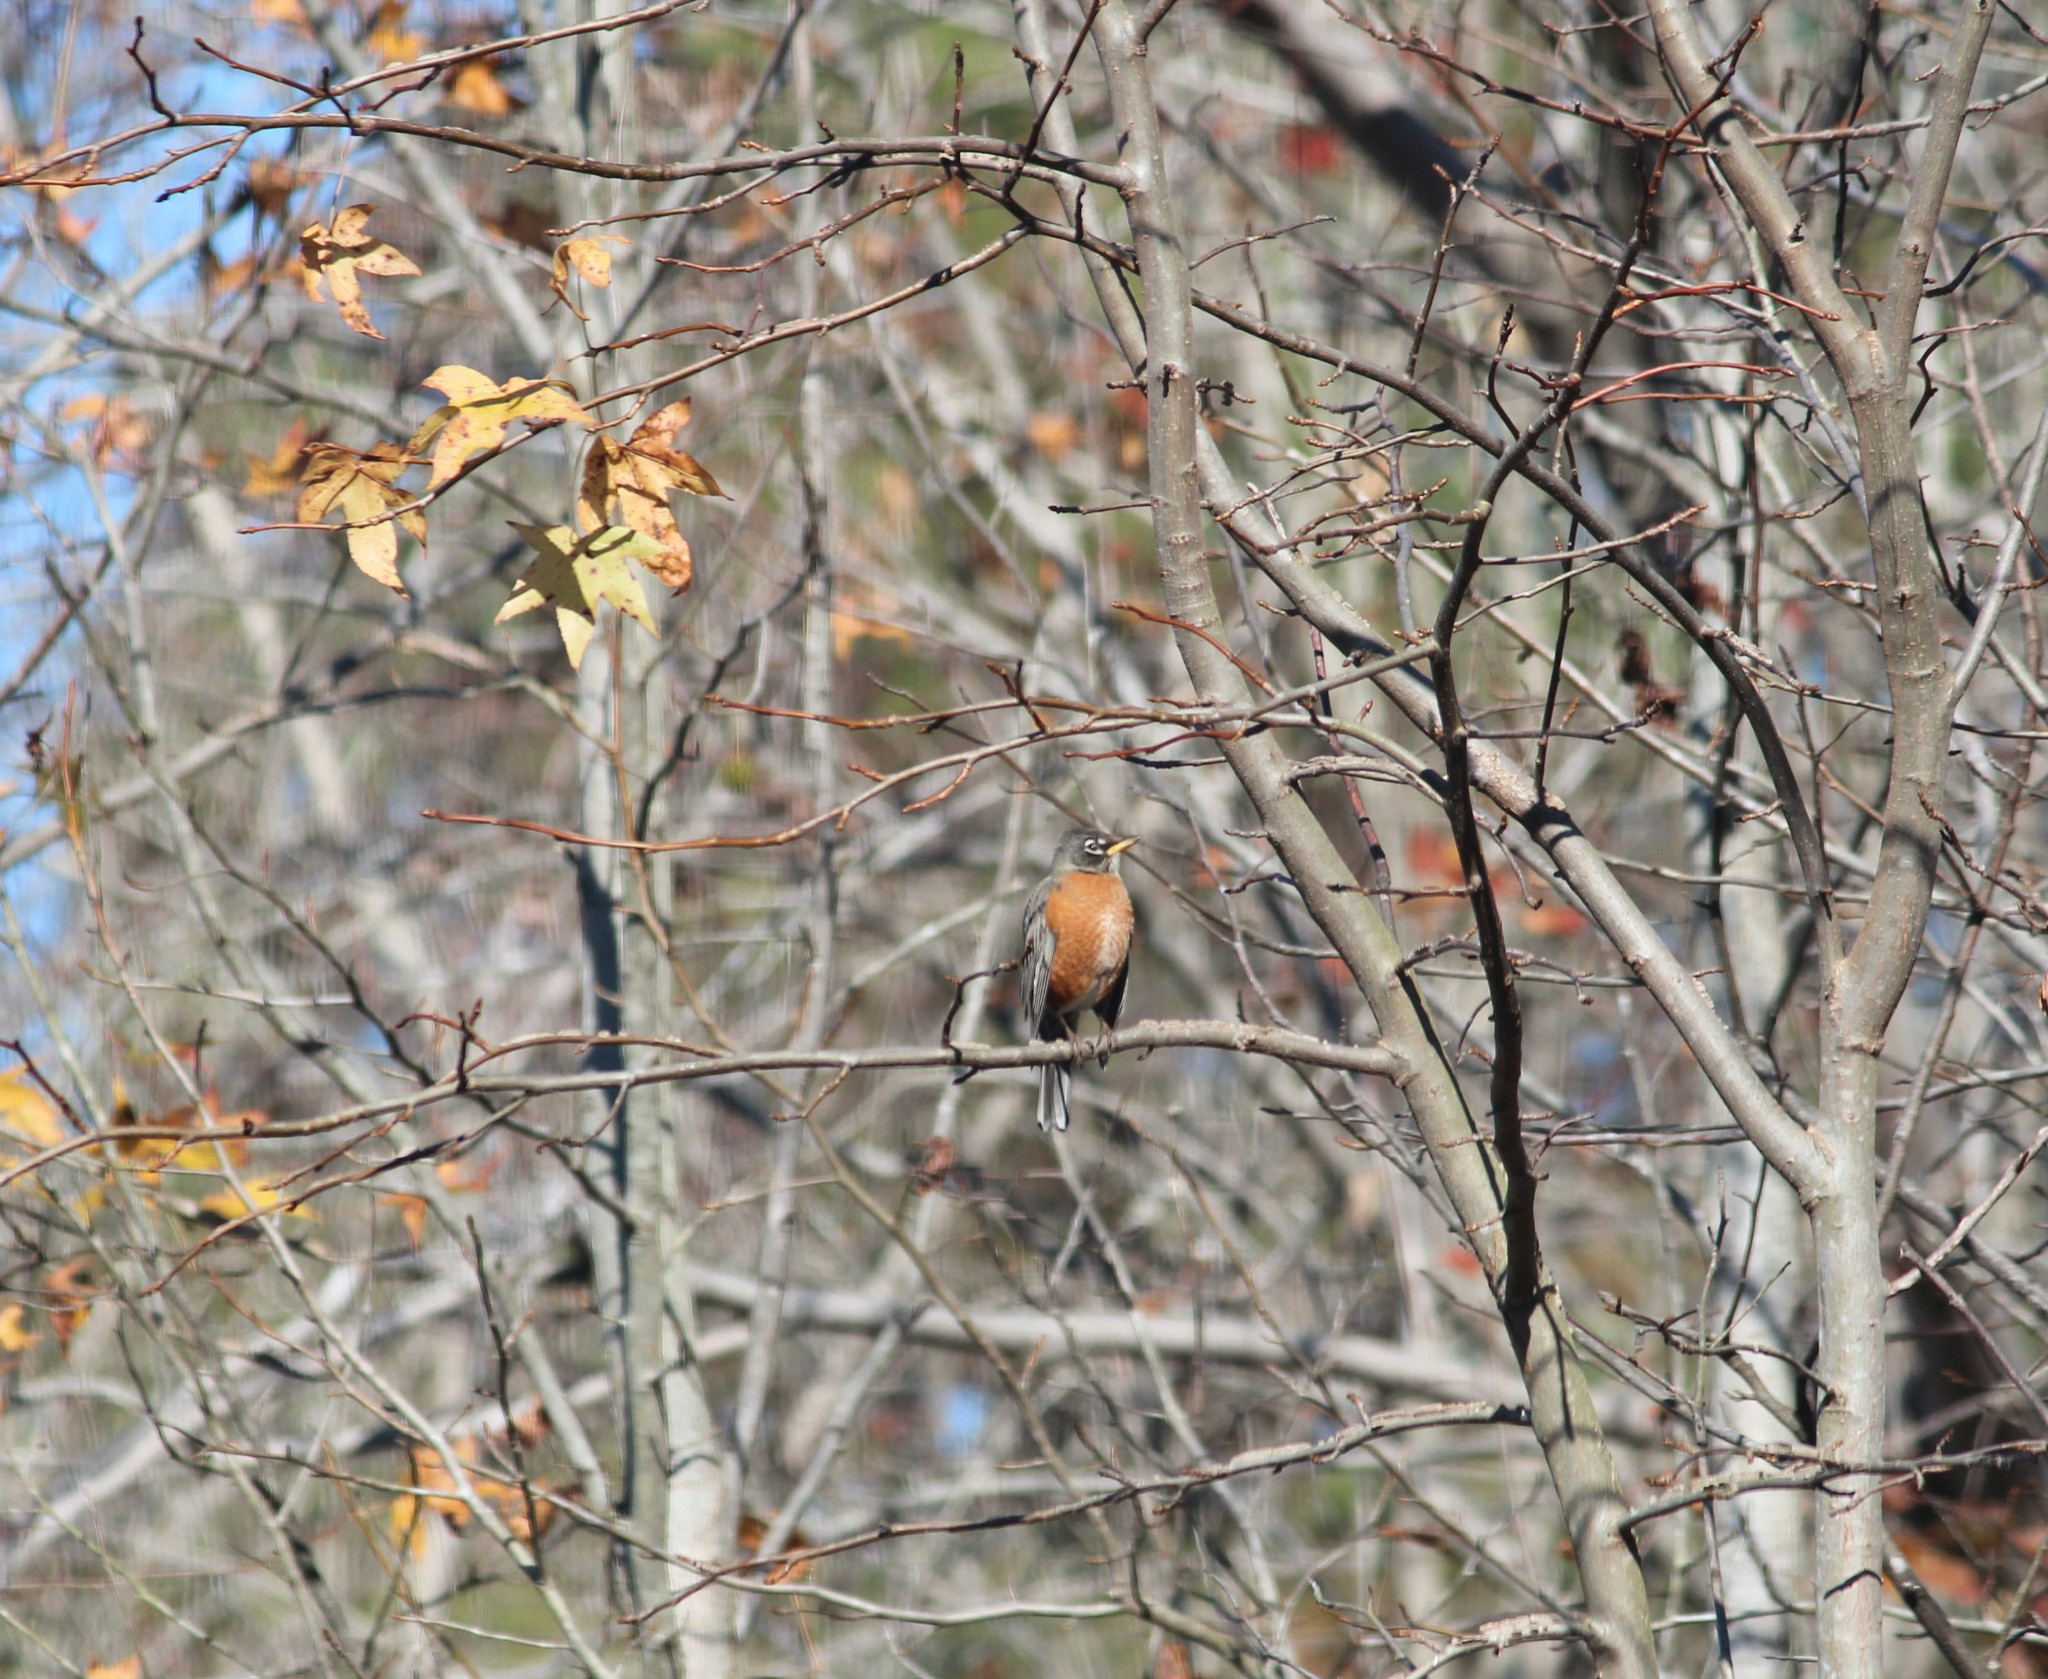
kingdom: Animalia
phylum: Chordata
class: Aves
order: Passeriformes
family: Turdidae
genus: Turdus
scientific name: Turdus migratorius
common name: American robin
